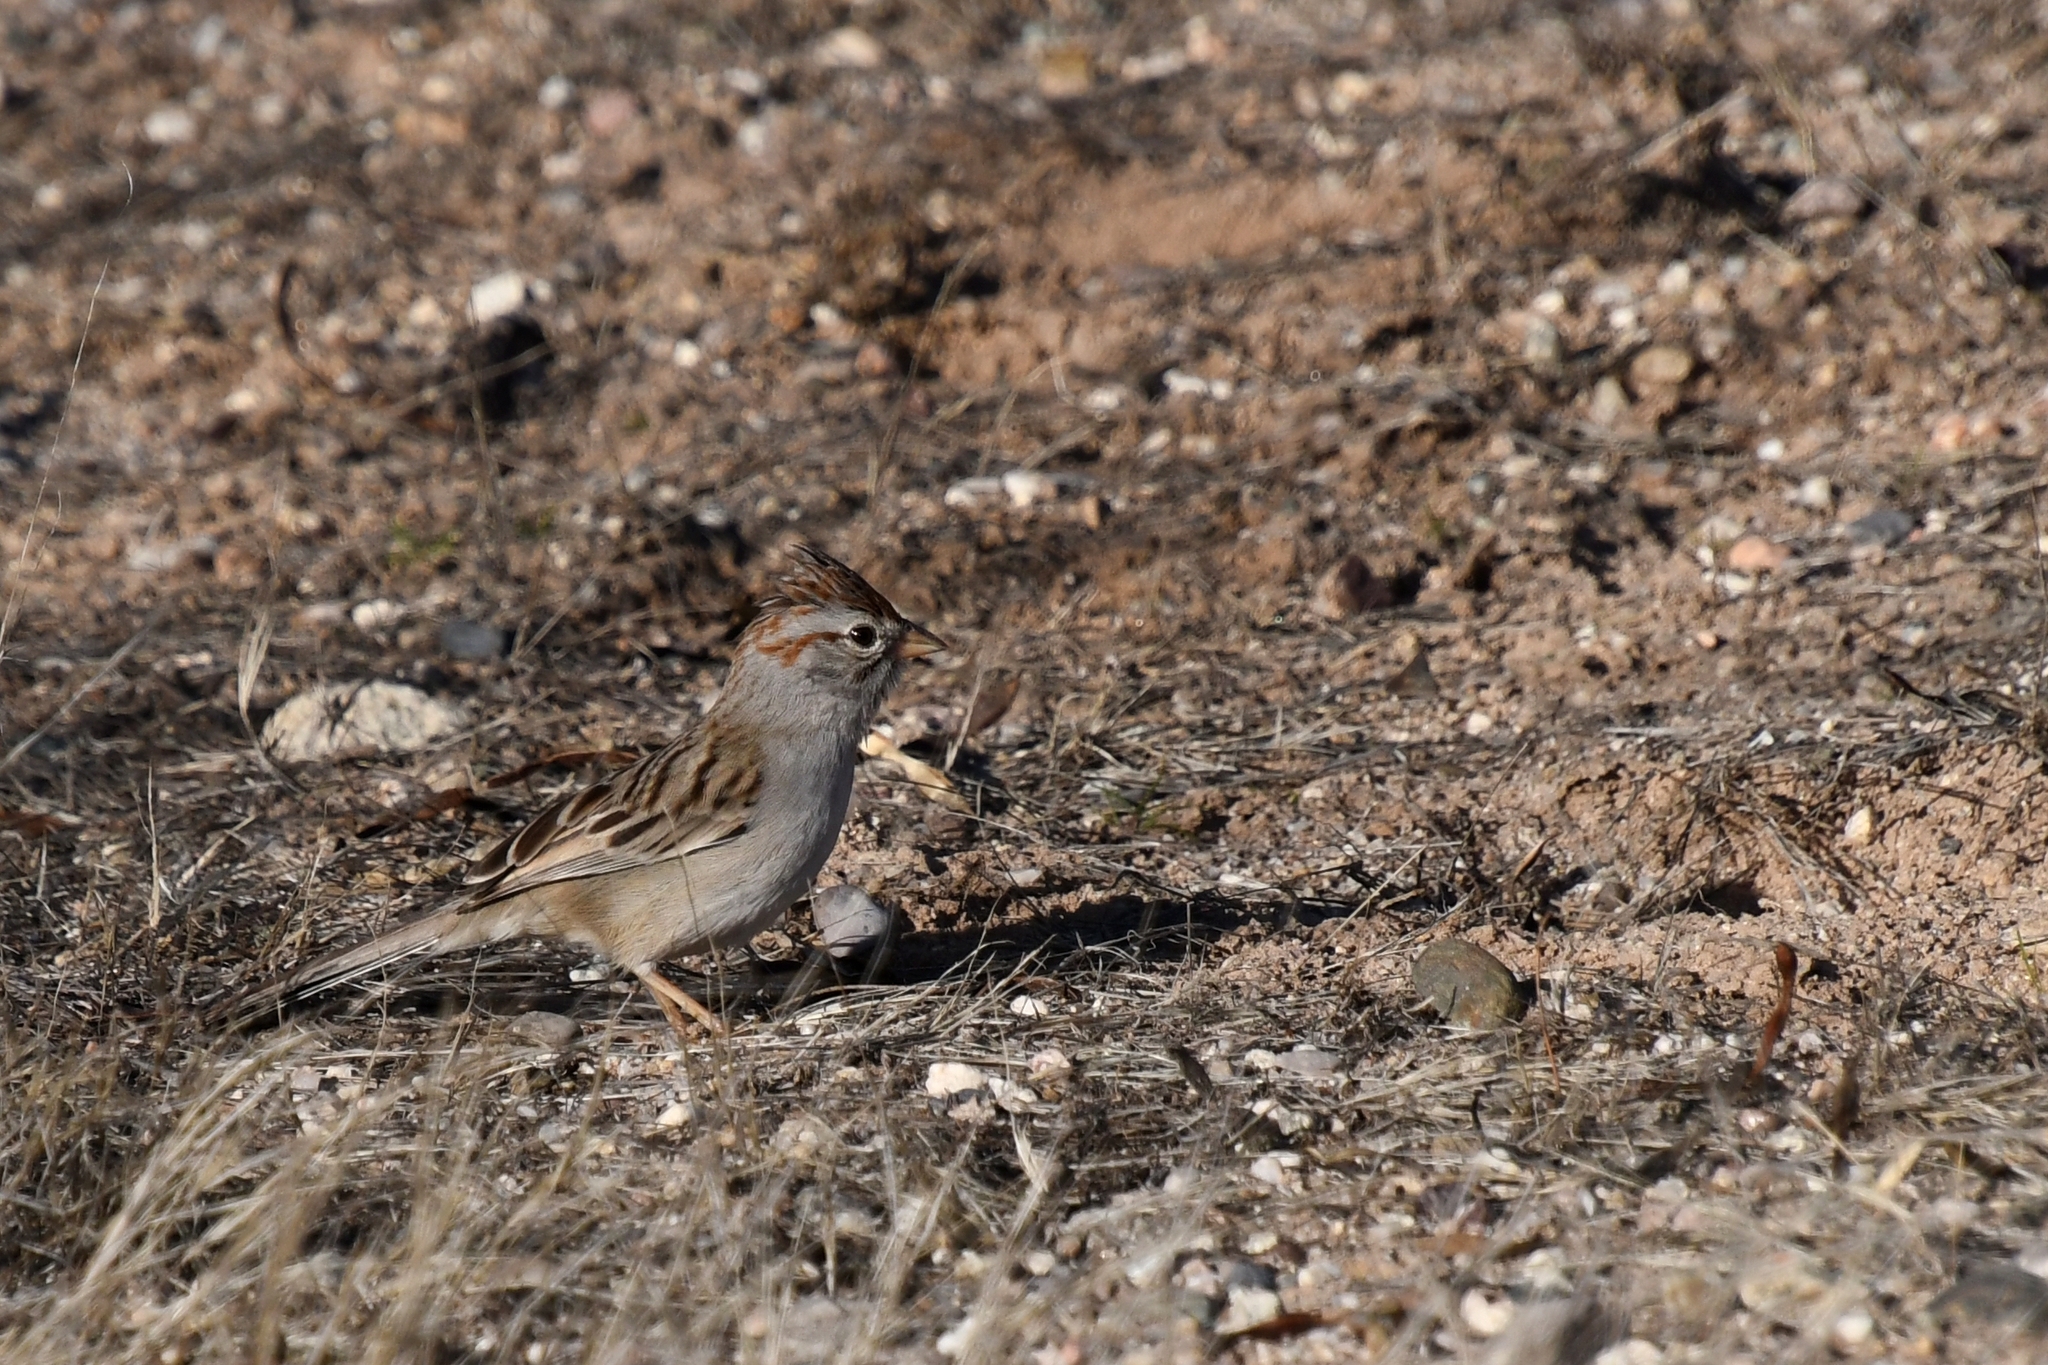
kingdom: Animalia
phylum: Chordata
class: Aves
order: Passeriformes
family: Passerellidae
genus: Peucaea
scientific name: Peucaea carpalis
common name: Rufous-winged sparrow
